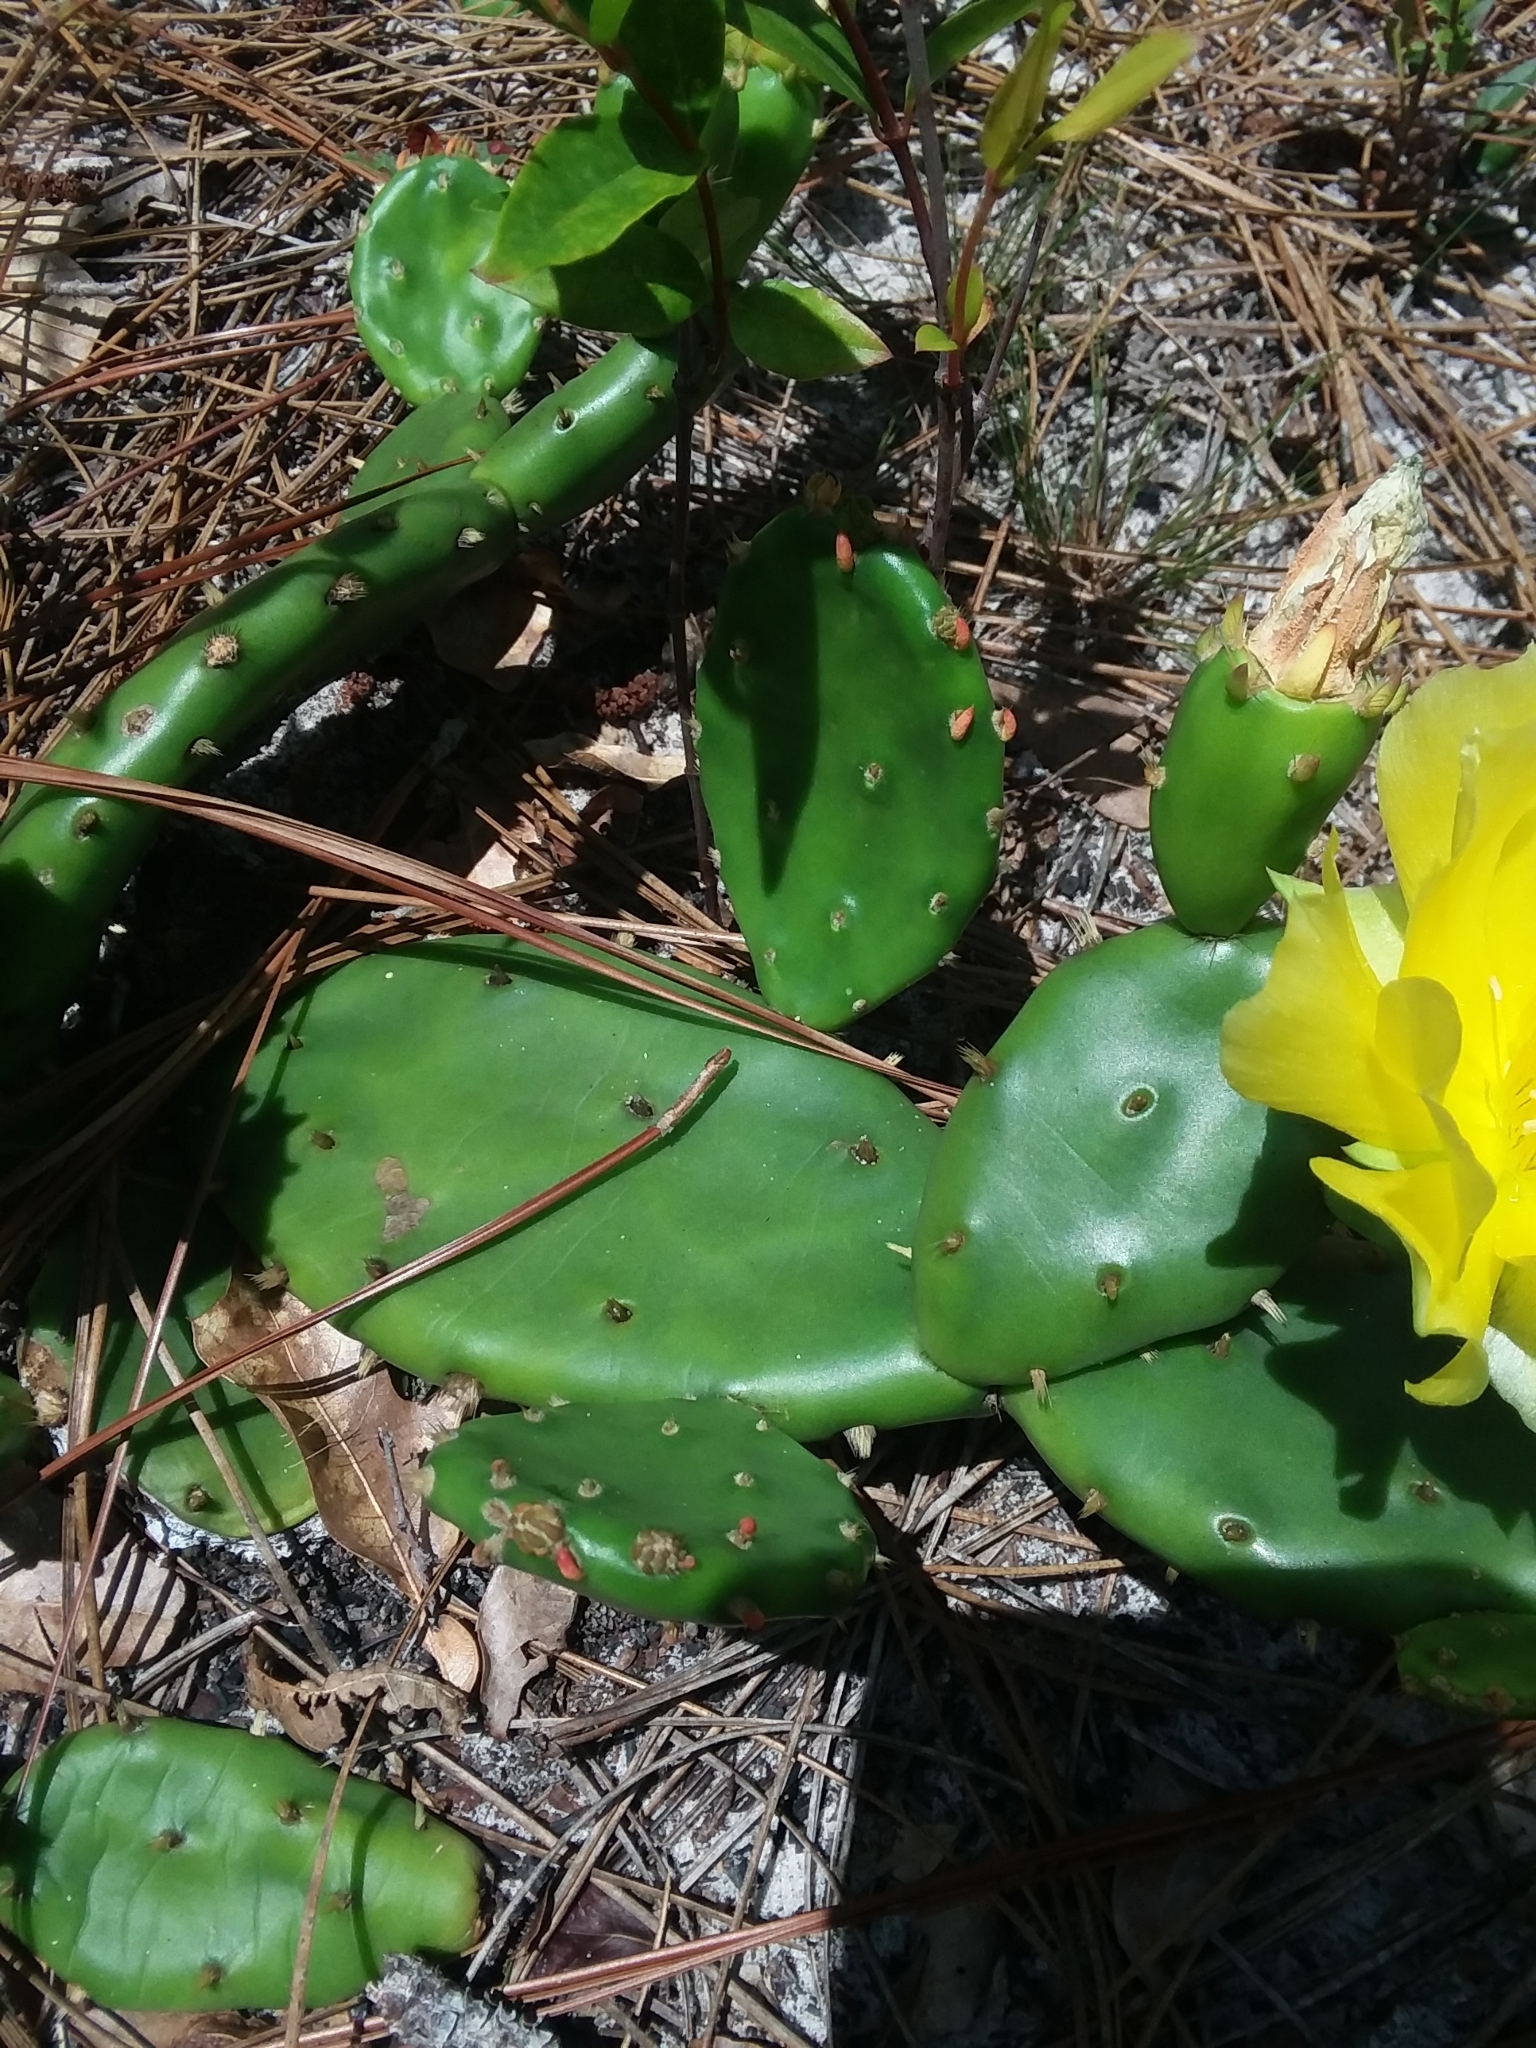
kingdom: Plantae
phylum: Tracheophyta
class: Magnoliopsida
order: Caryophyllales
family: Cactaceae
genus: Opuntia
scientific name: Opuntia mesacantha
